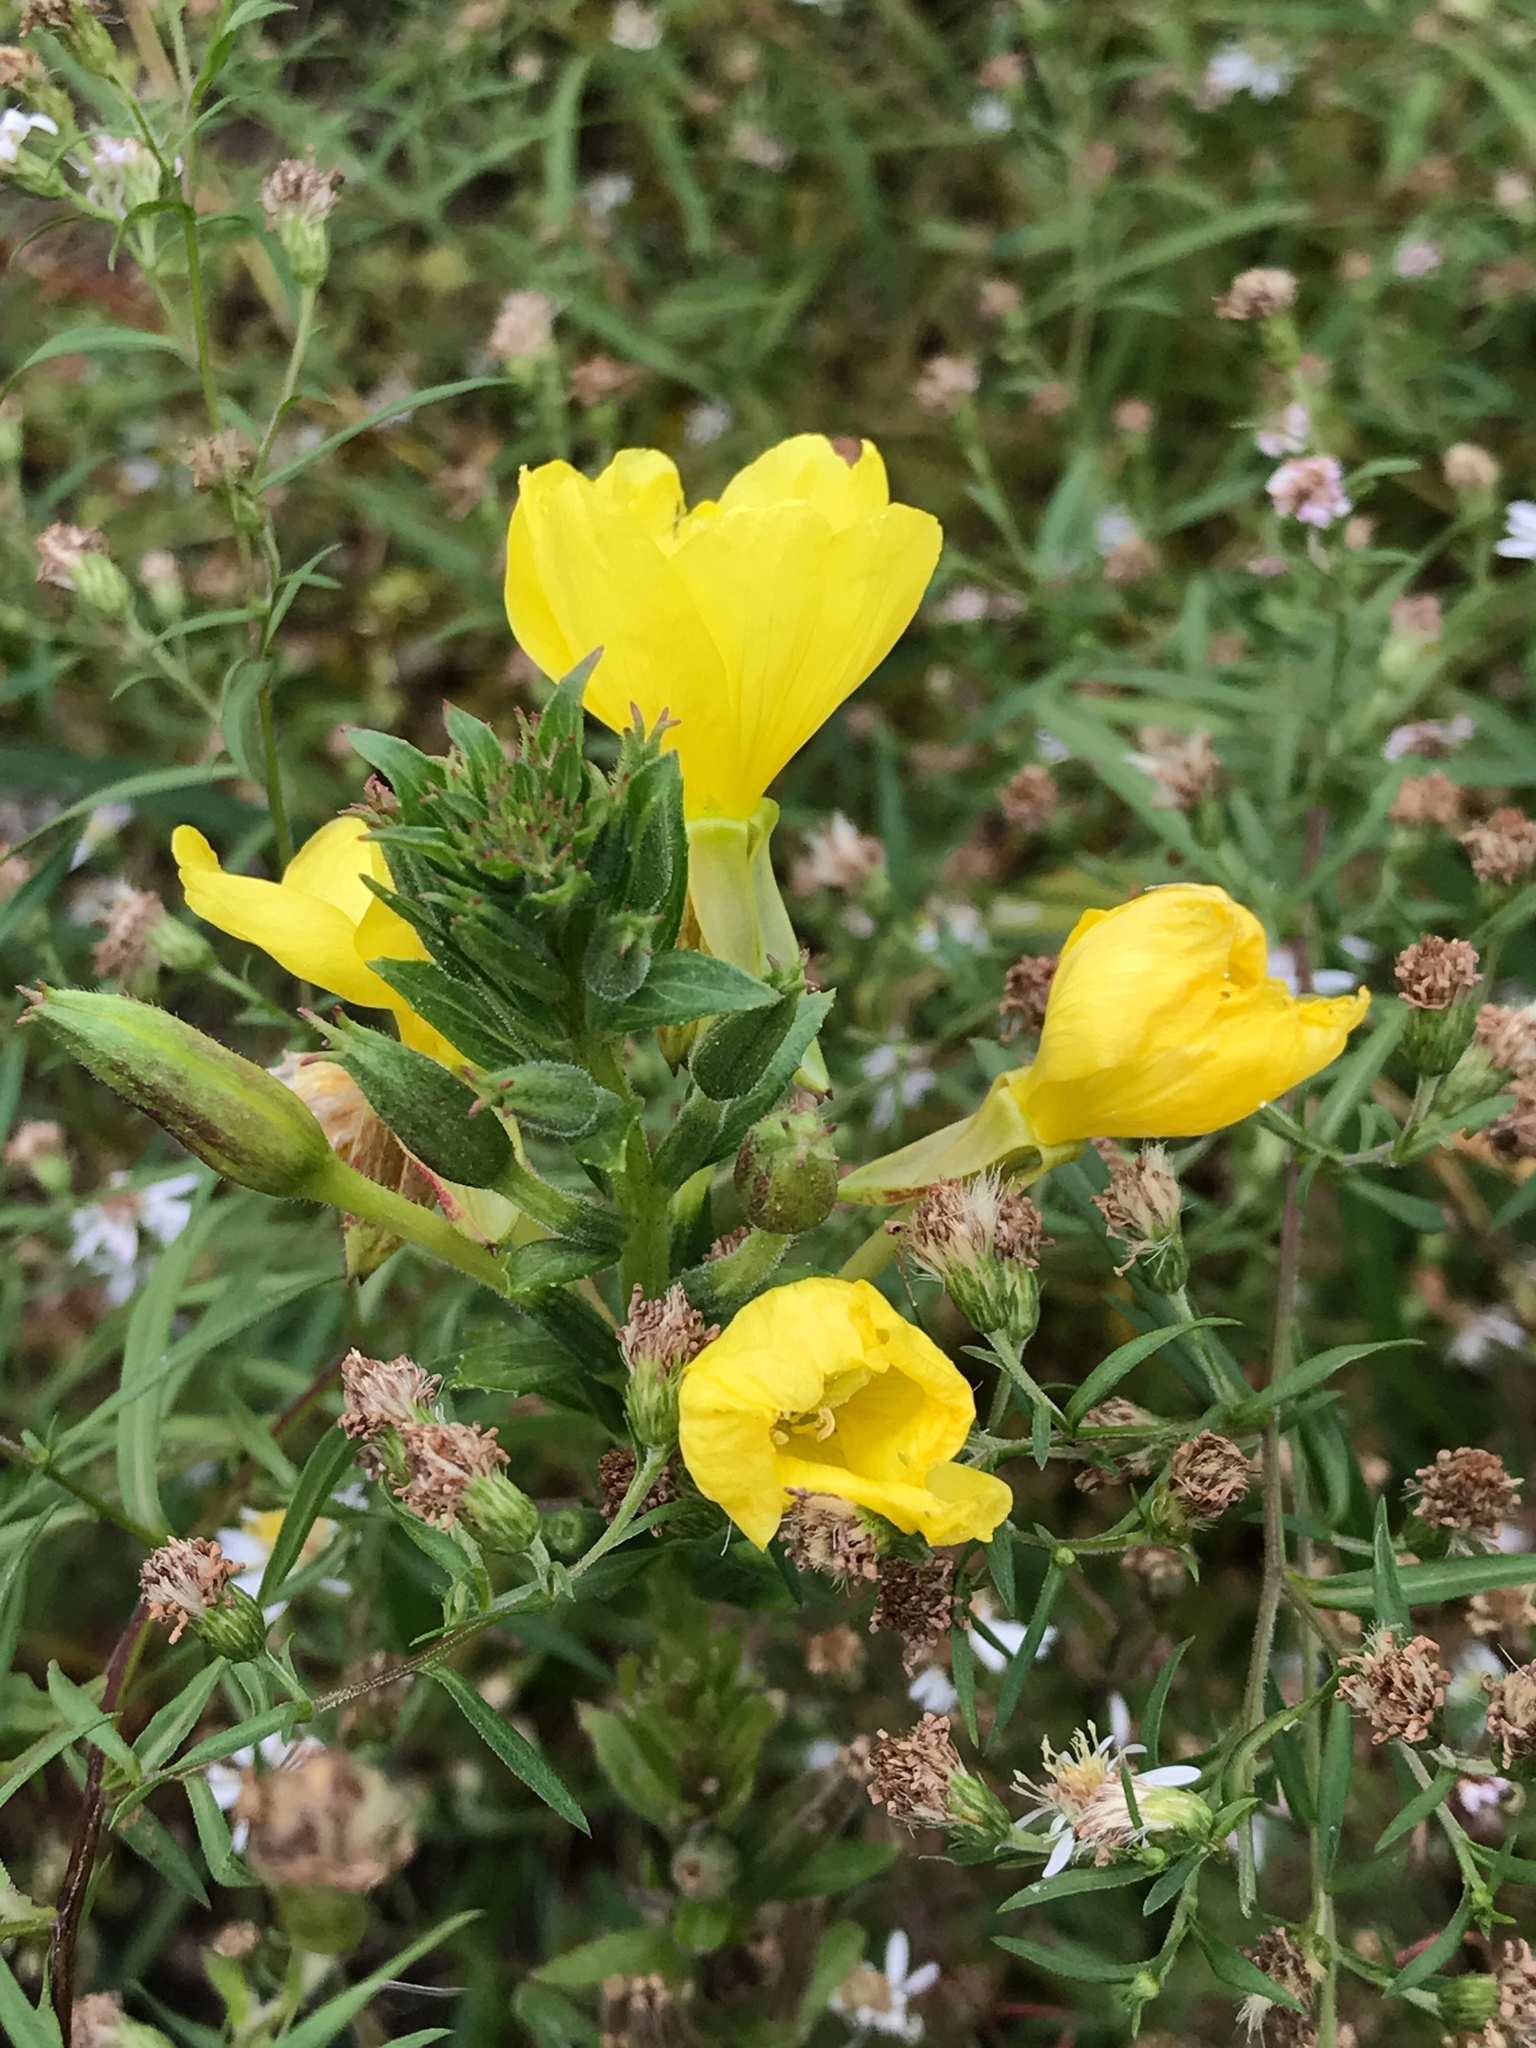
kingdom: Plantae
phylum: Tracheophyta
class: Magnoliopsida
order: Myrtales
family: Onagraceae
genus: Oenothera
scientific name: Oenothera biennis
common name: Common evening-primrose
